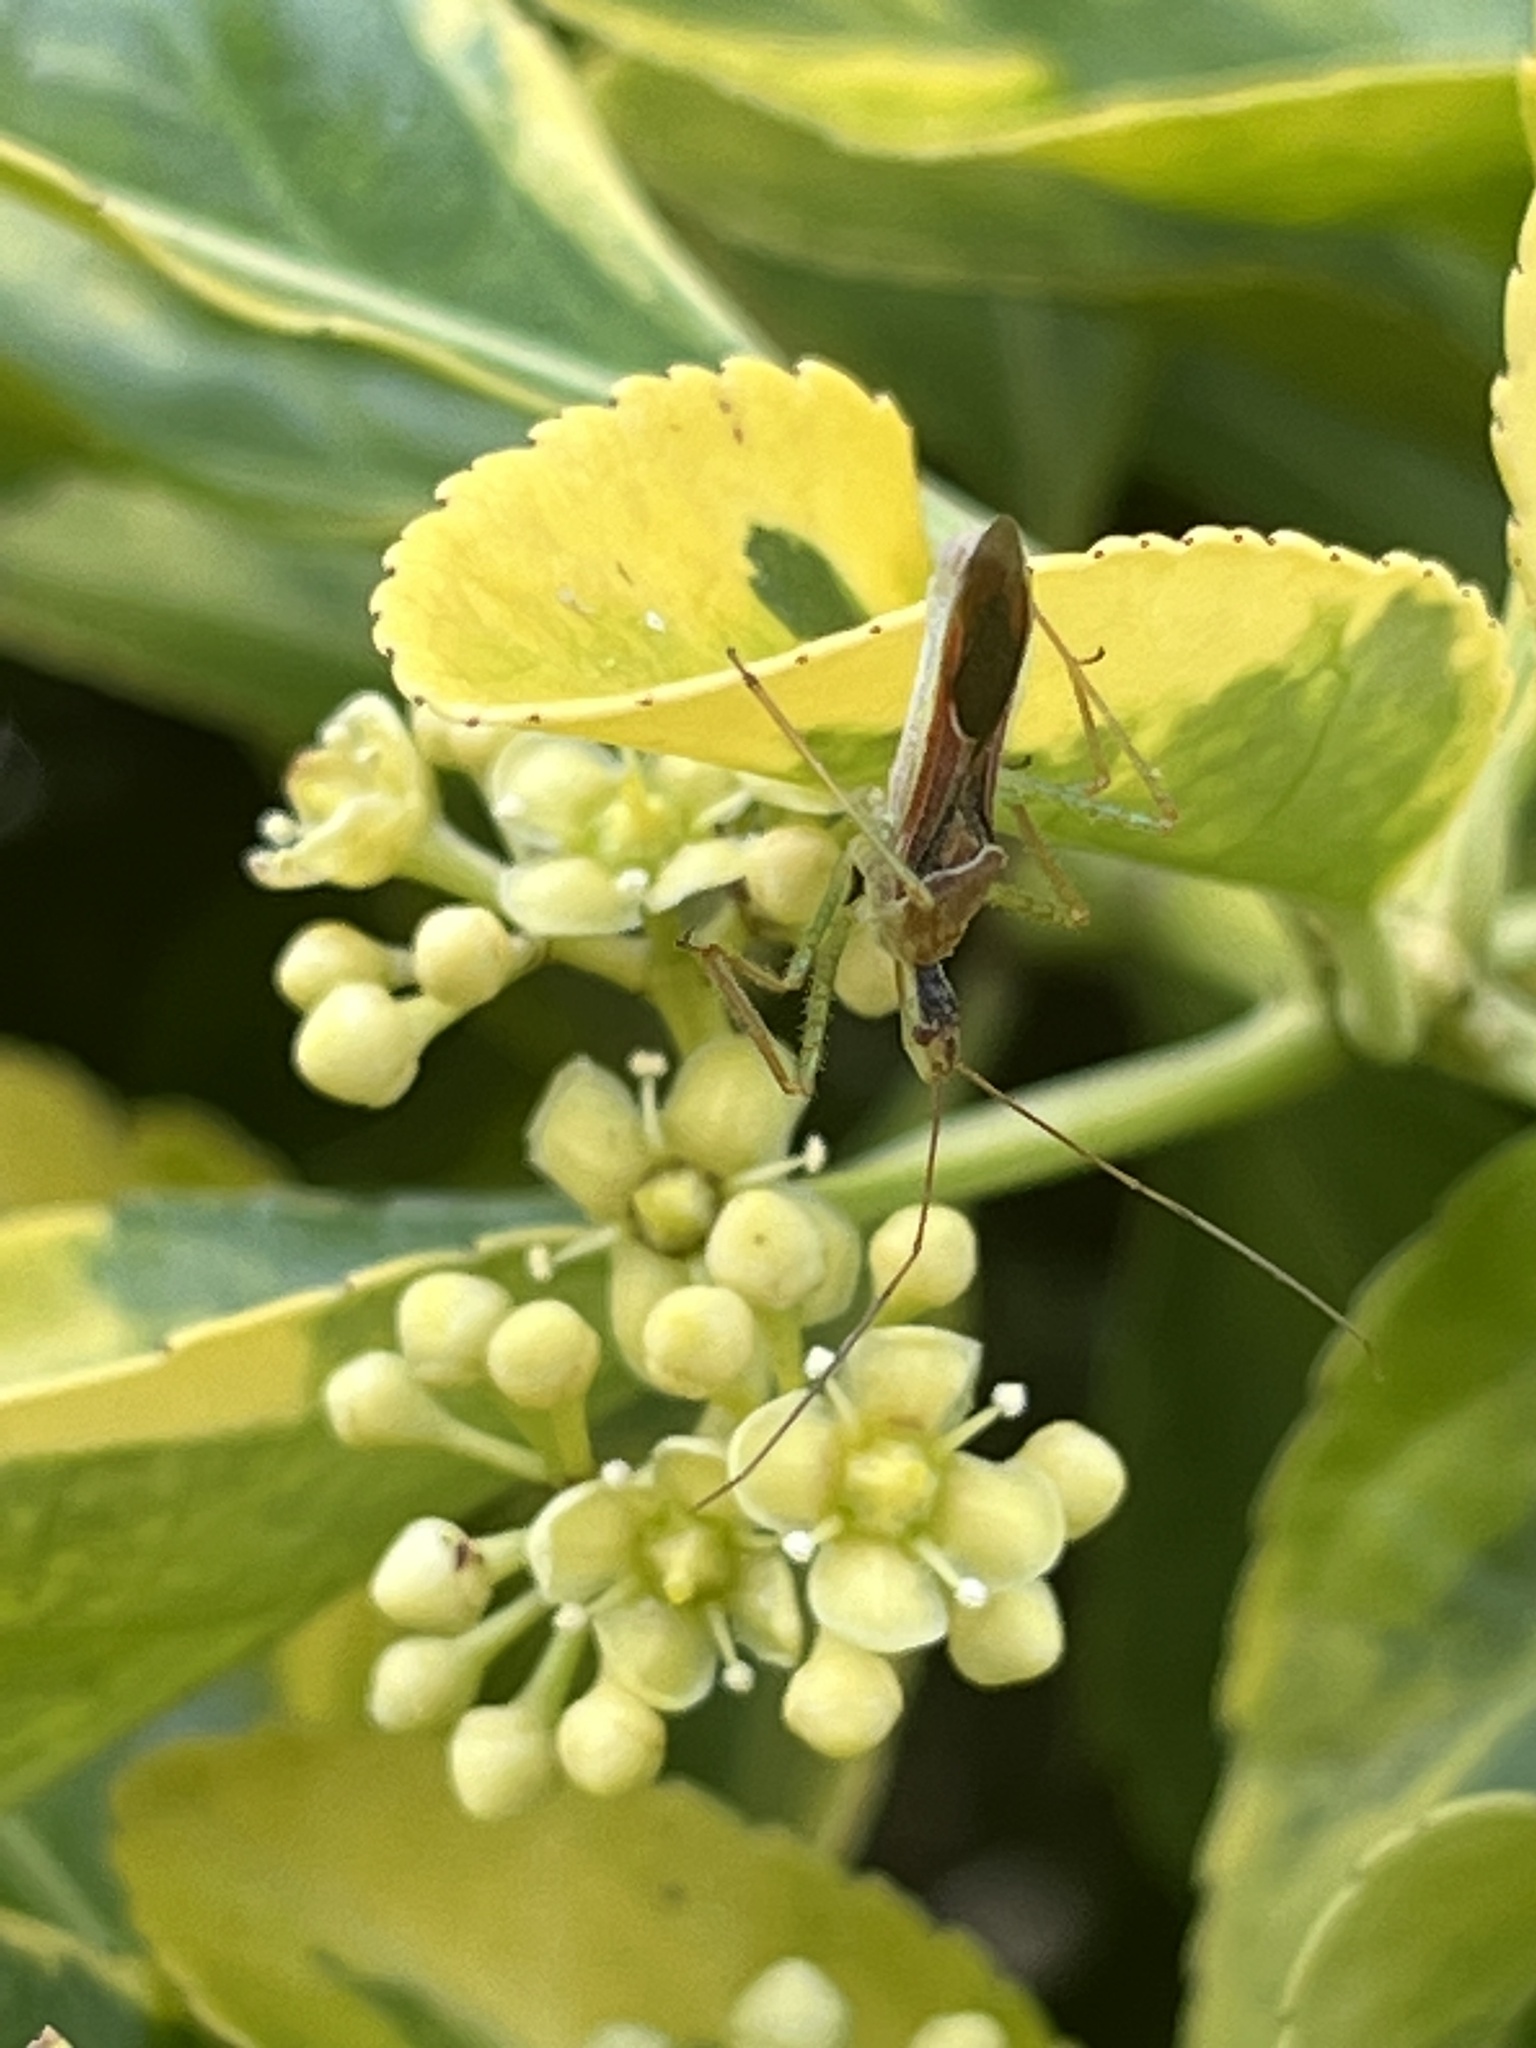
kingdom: Animalia
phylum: Arthropoda
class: Insecta
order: Hemiptera
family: Reduviidae
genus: Zelus
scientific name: Zelus renardii
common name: Assassin bug
